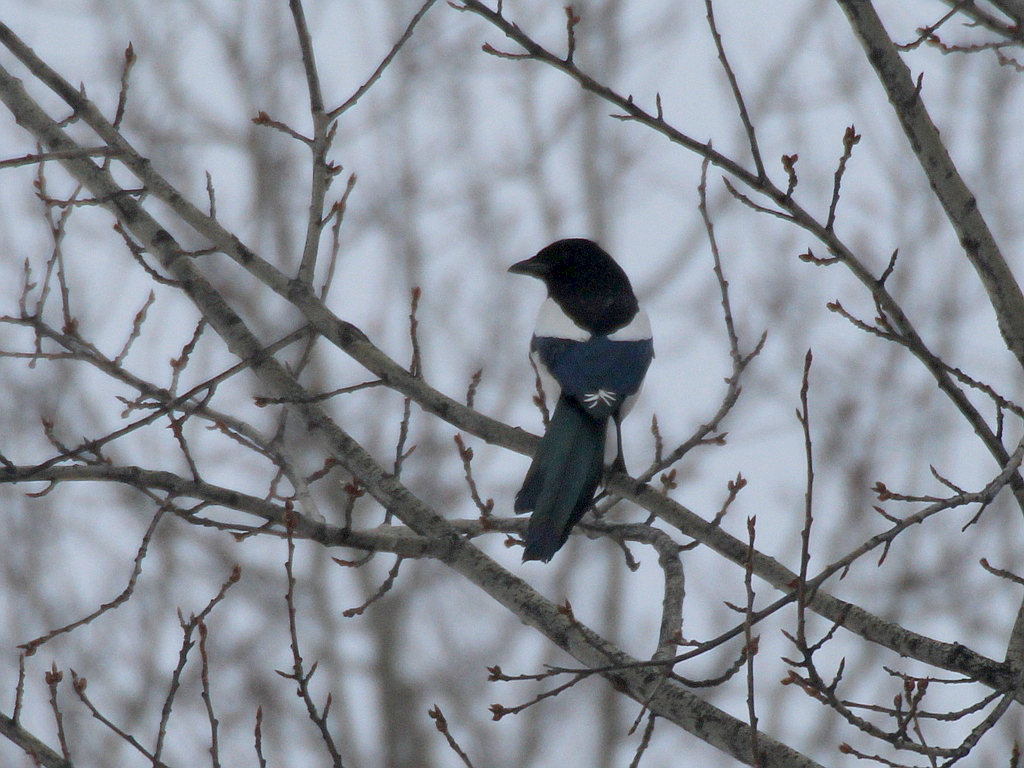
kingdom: Animalia
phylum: Chordata
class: Aves
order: Passeriformes
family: Corvidae
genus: Pica
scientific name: Pica pica
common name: Eurasian magpie
